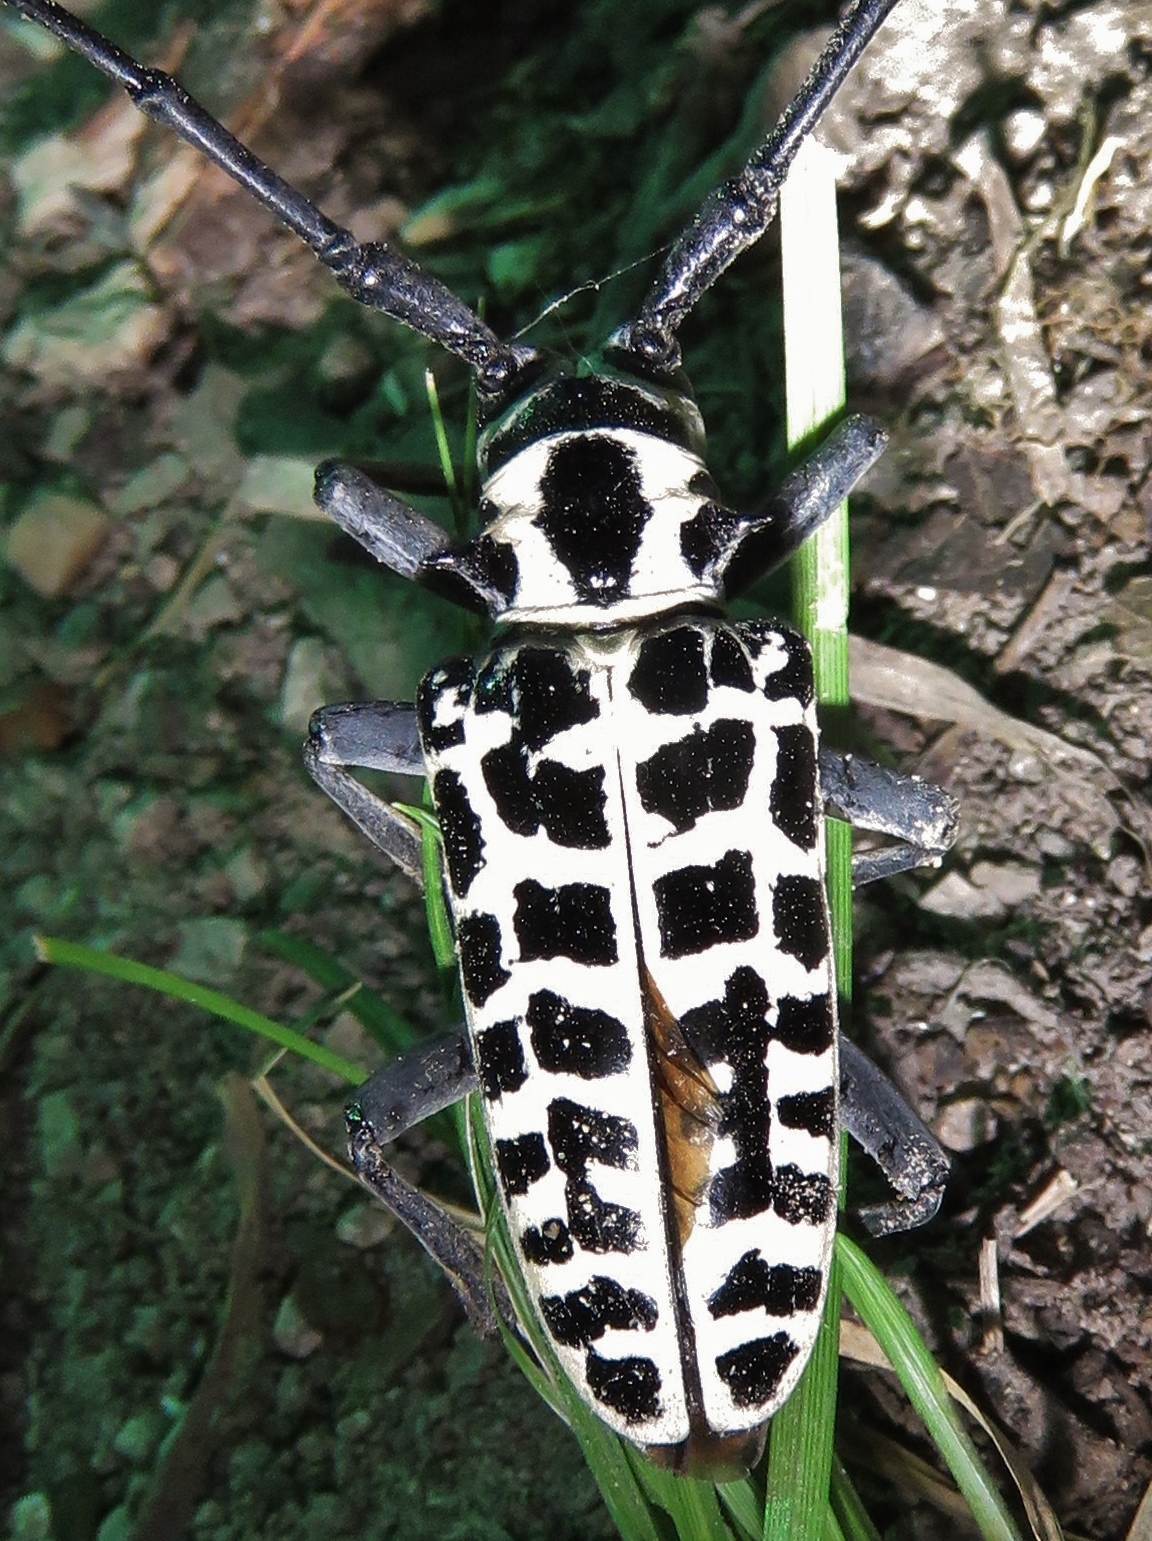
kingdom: Animalia
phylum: Arthropoda
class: Insecta
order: Coleoptera
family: Cerambycidae
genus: Plectrodera
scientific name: Plectrodera scalator
